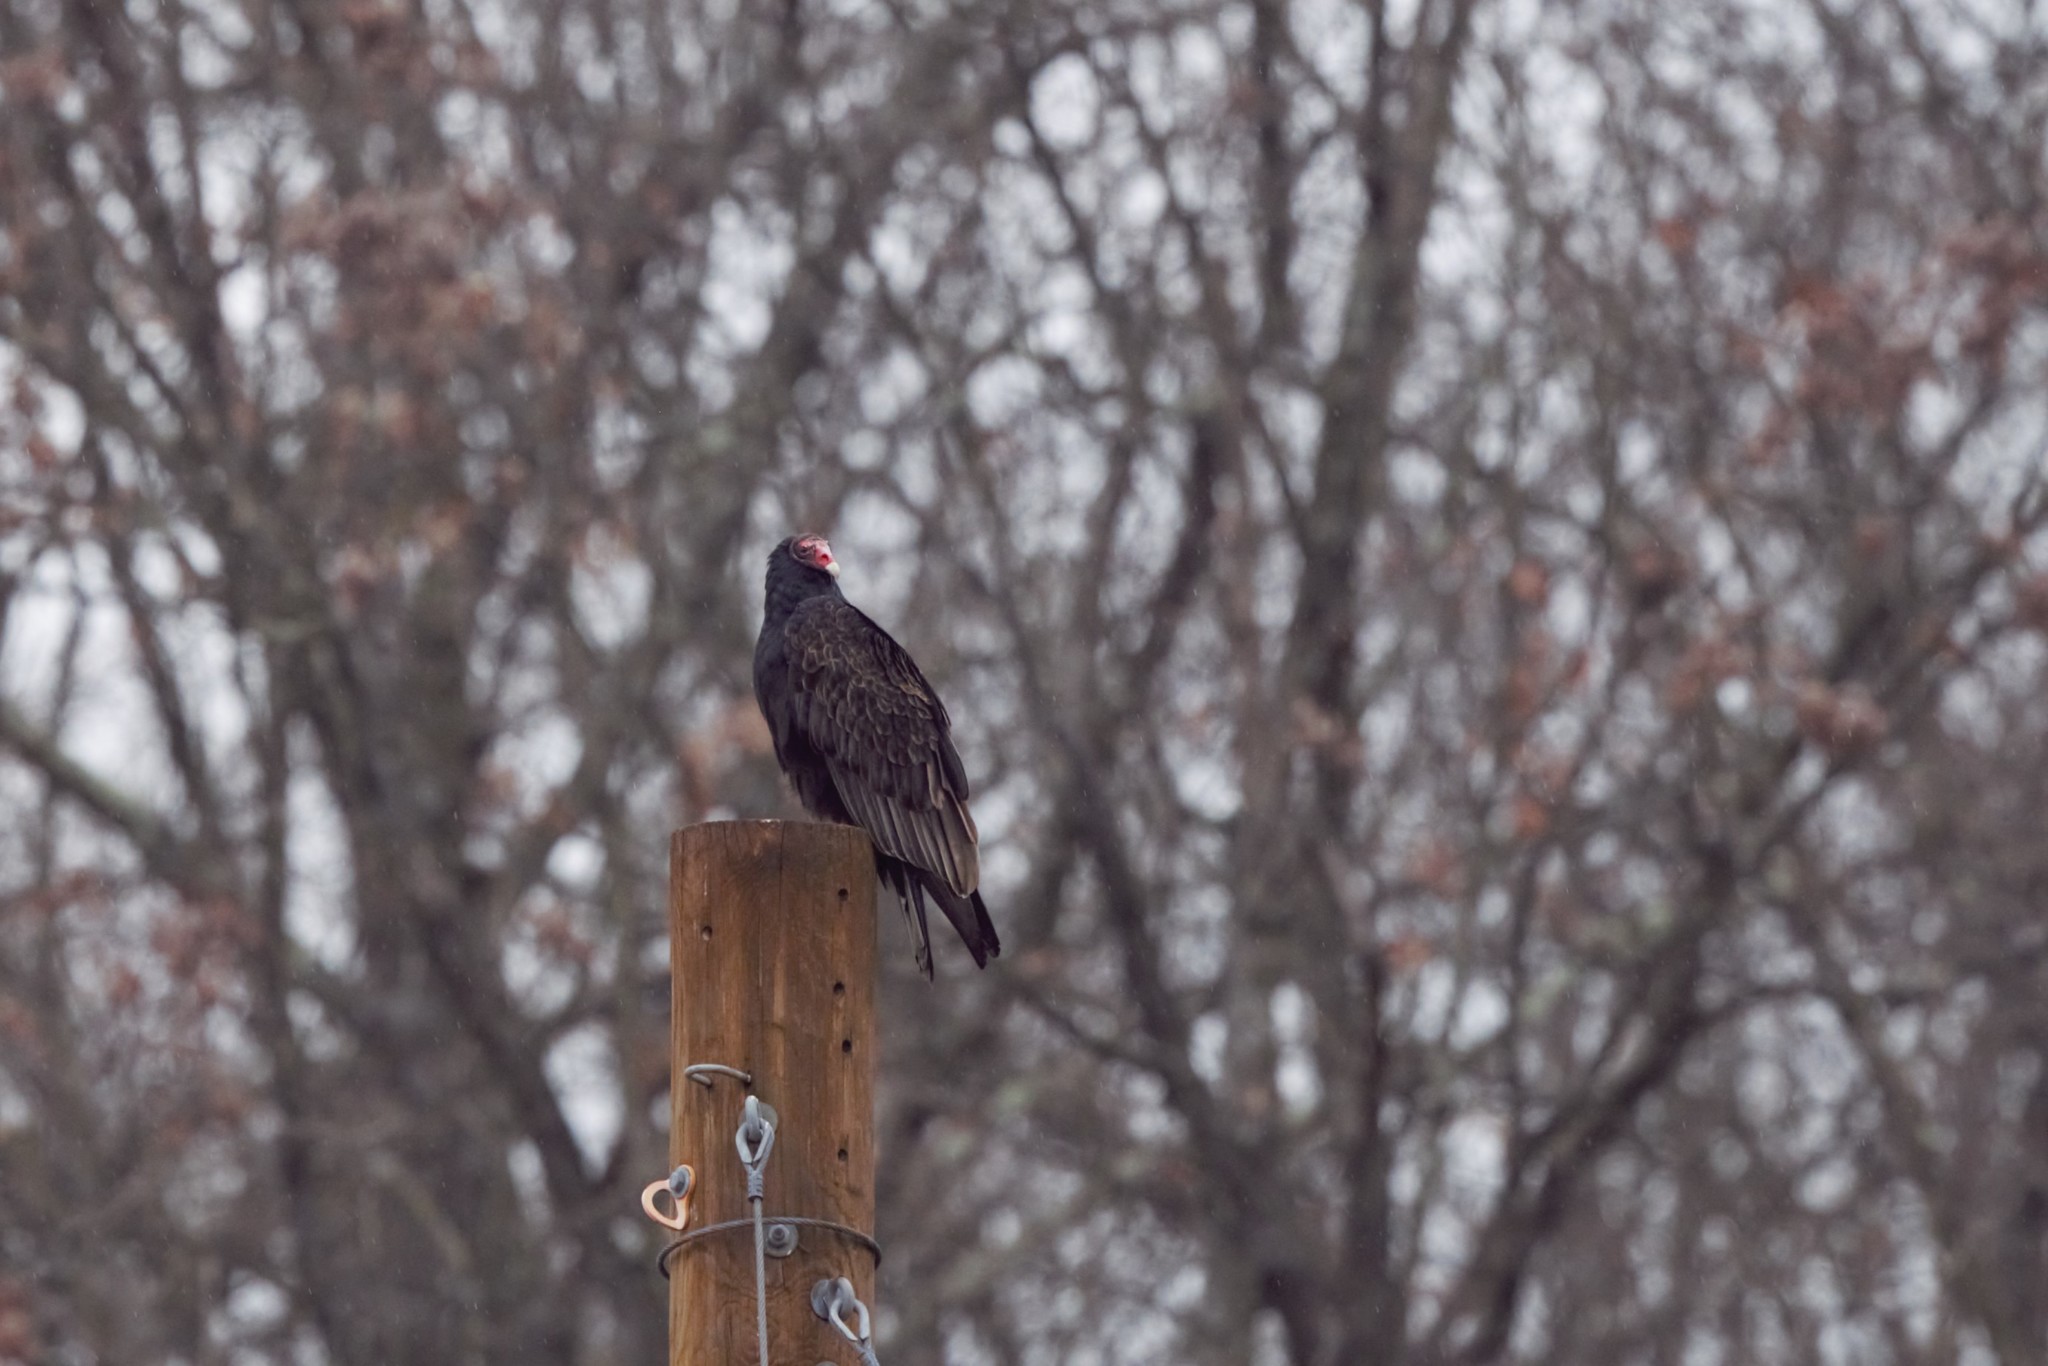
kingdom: Animalia
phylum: Chordata
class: Aves
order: Accipitriformes
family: Cathartidae
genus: Cathartes
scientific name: Cathartes aura
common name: Turkey vulture
